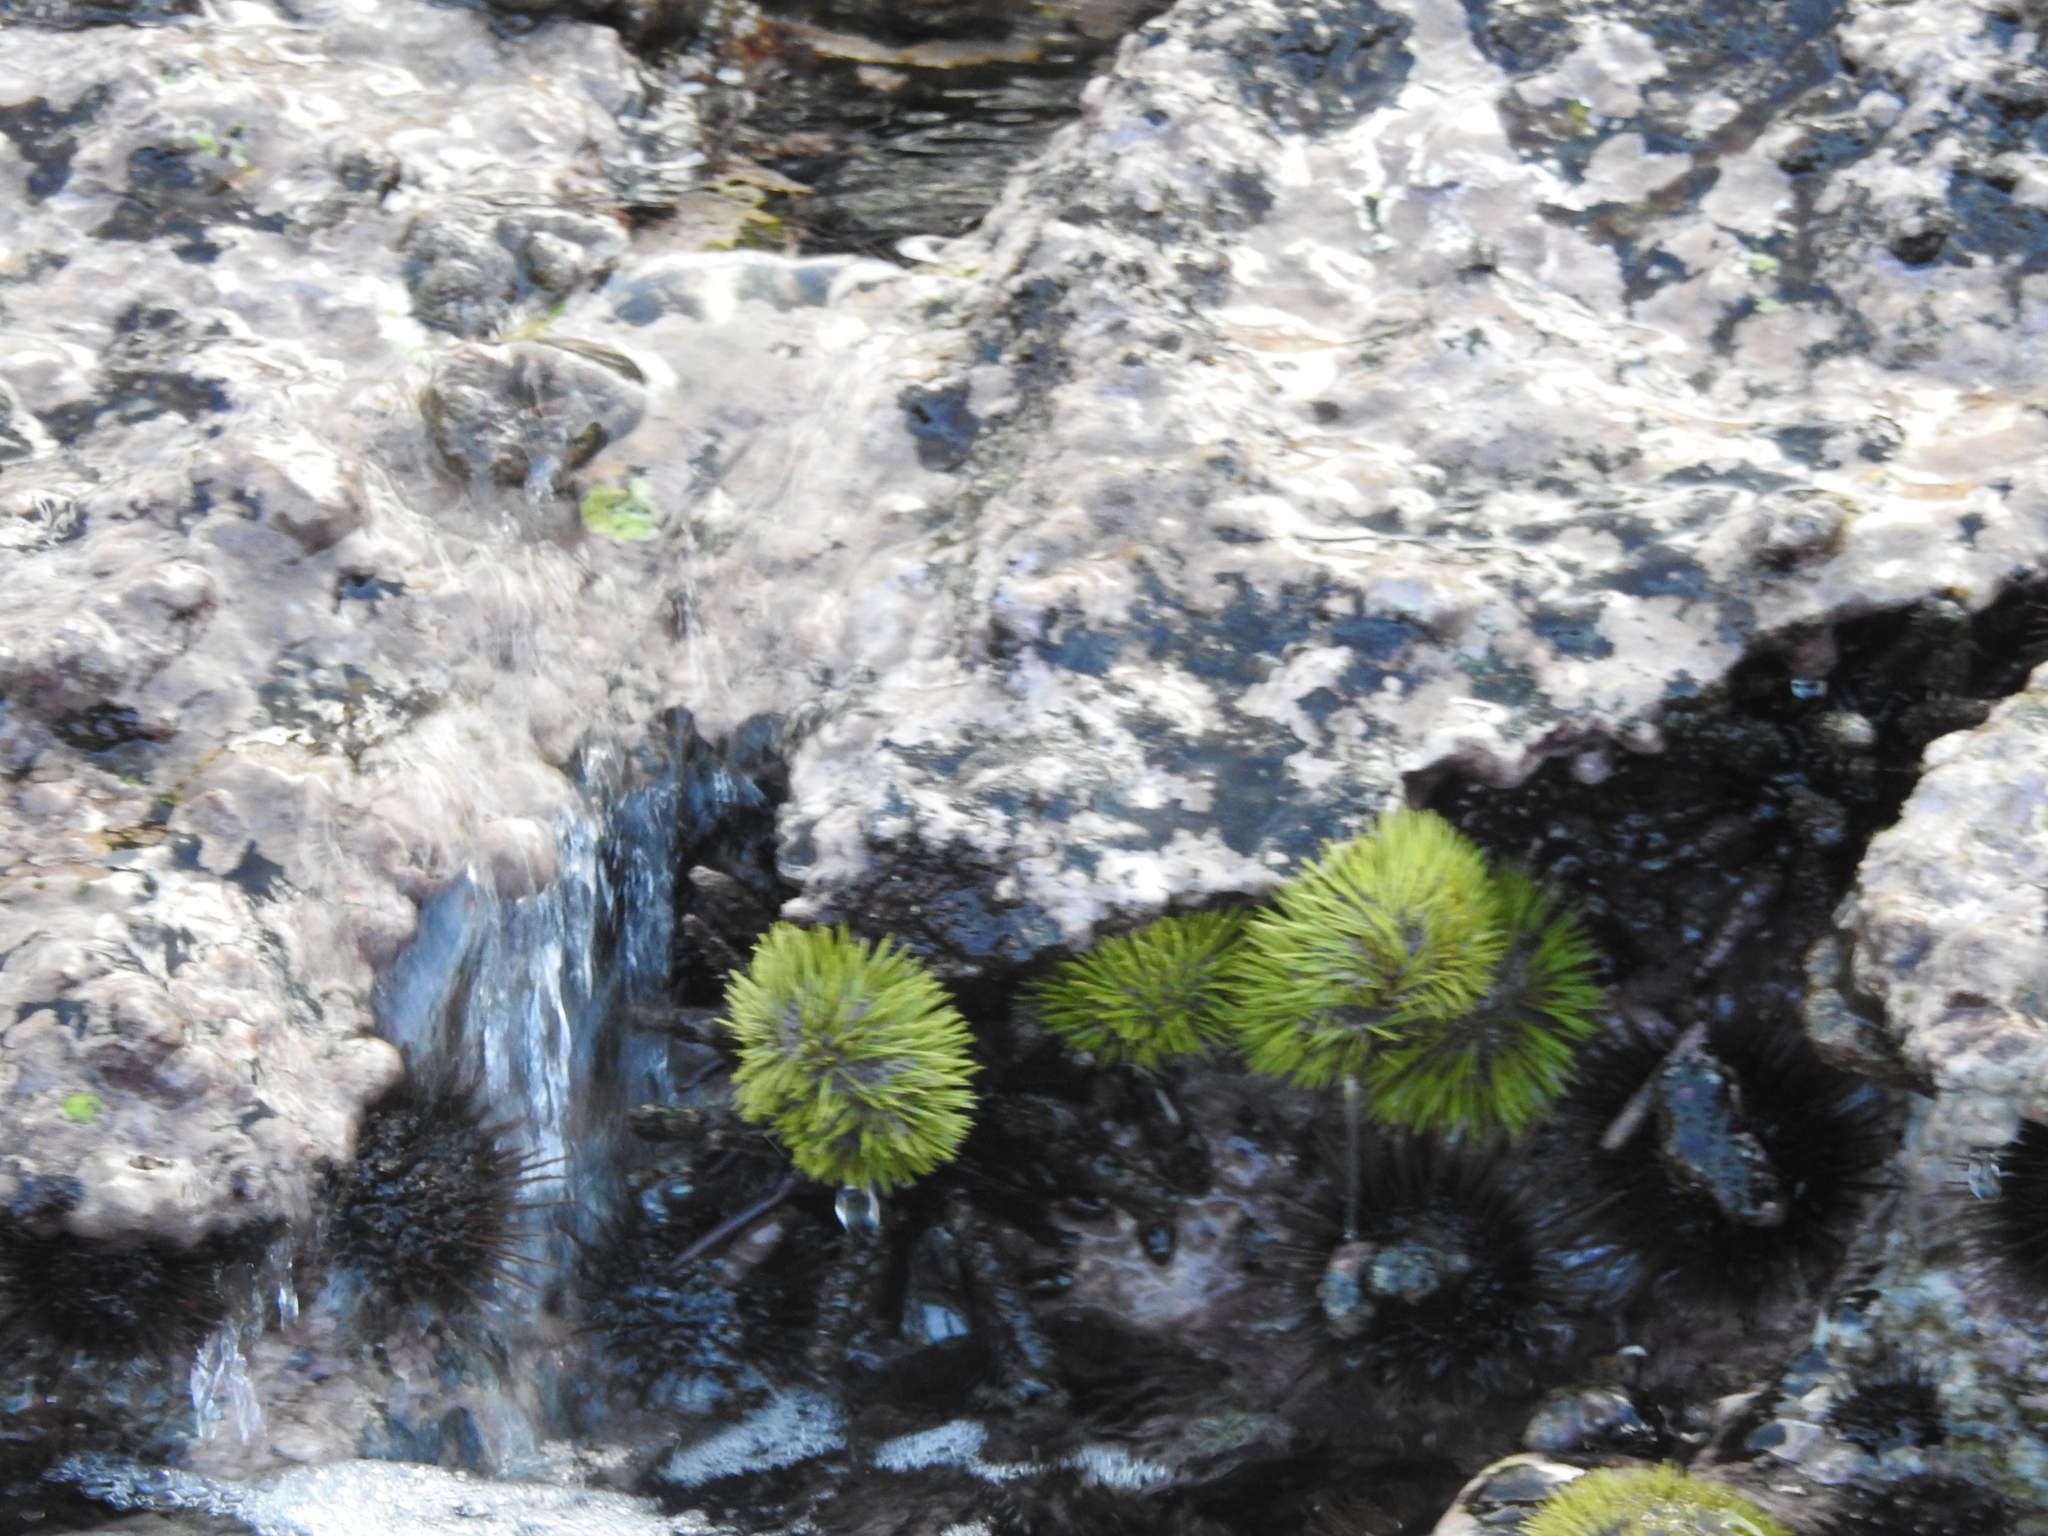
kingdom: Animalia
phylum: Echinodermata
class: Echinoidea
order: Camarodonta
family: Toxopneustidae
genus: Lytechinus
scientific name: Lytechinus semituberculatus
